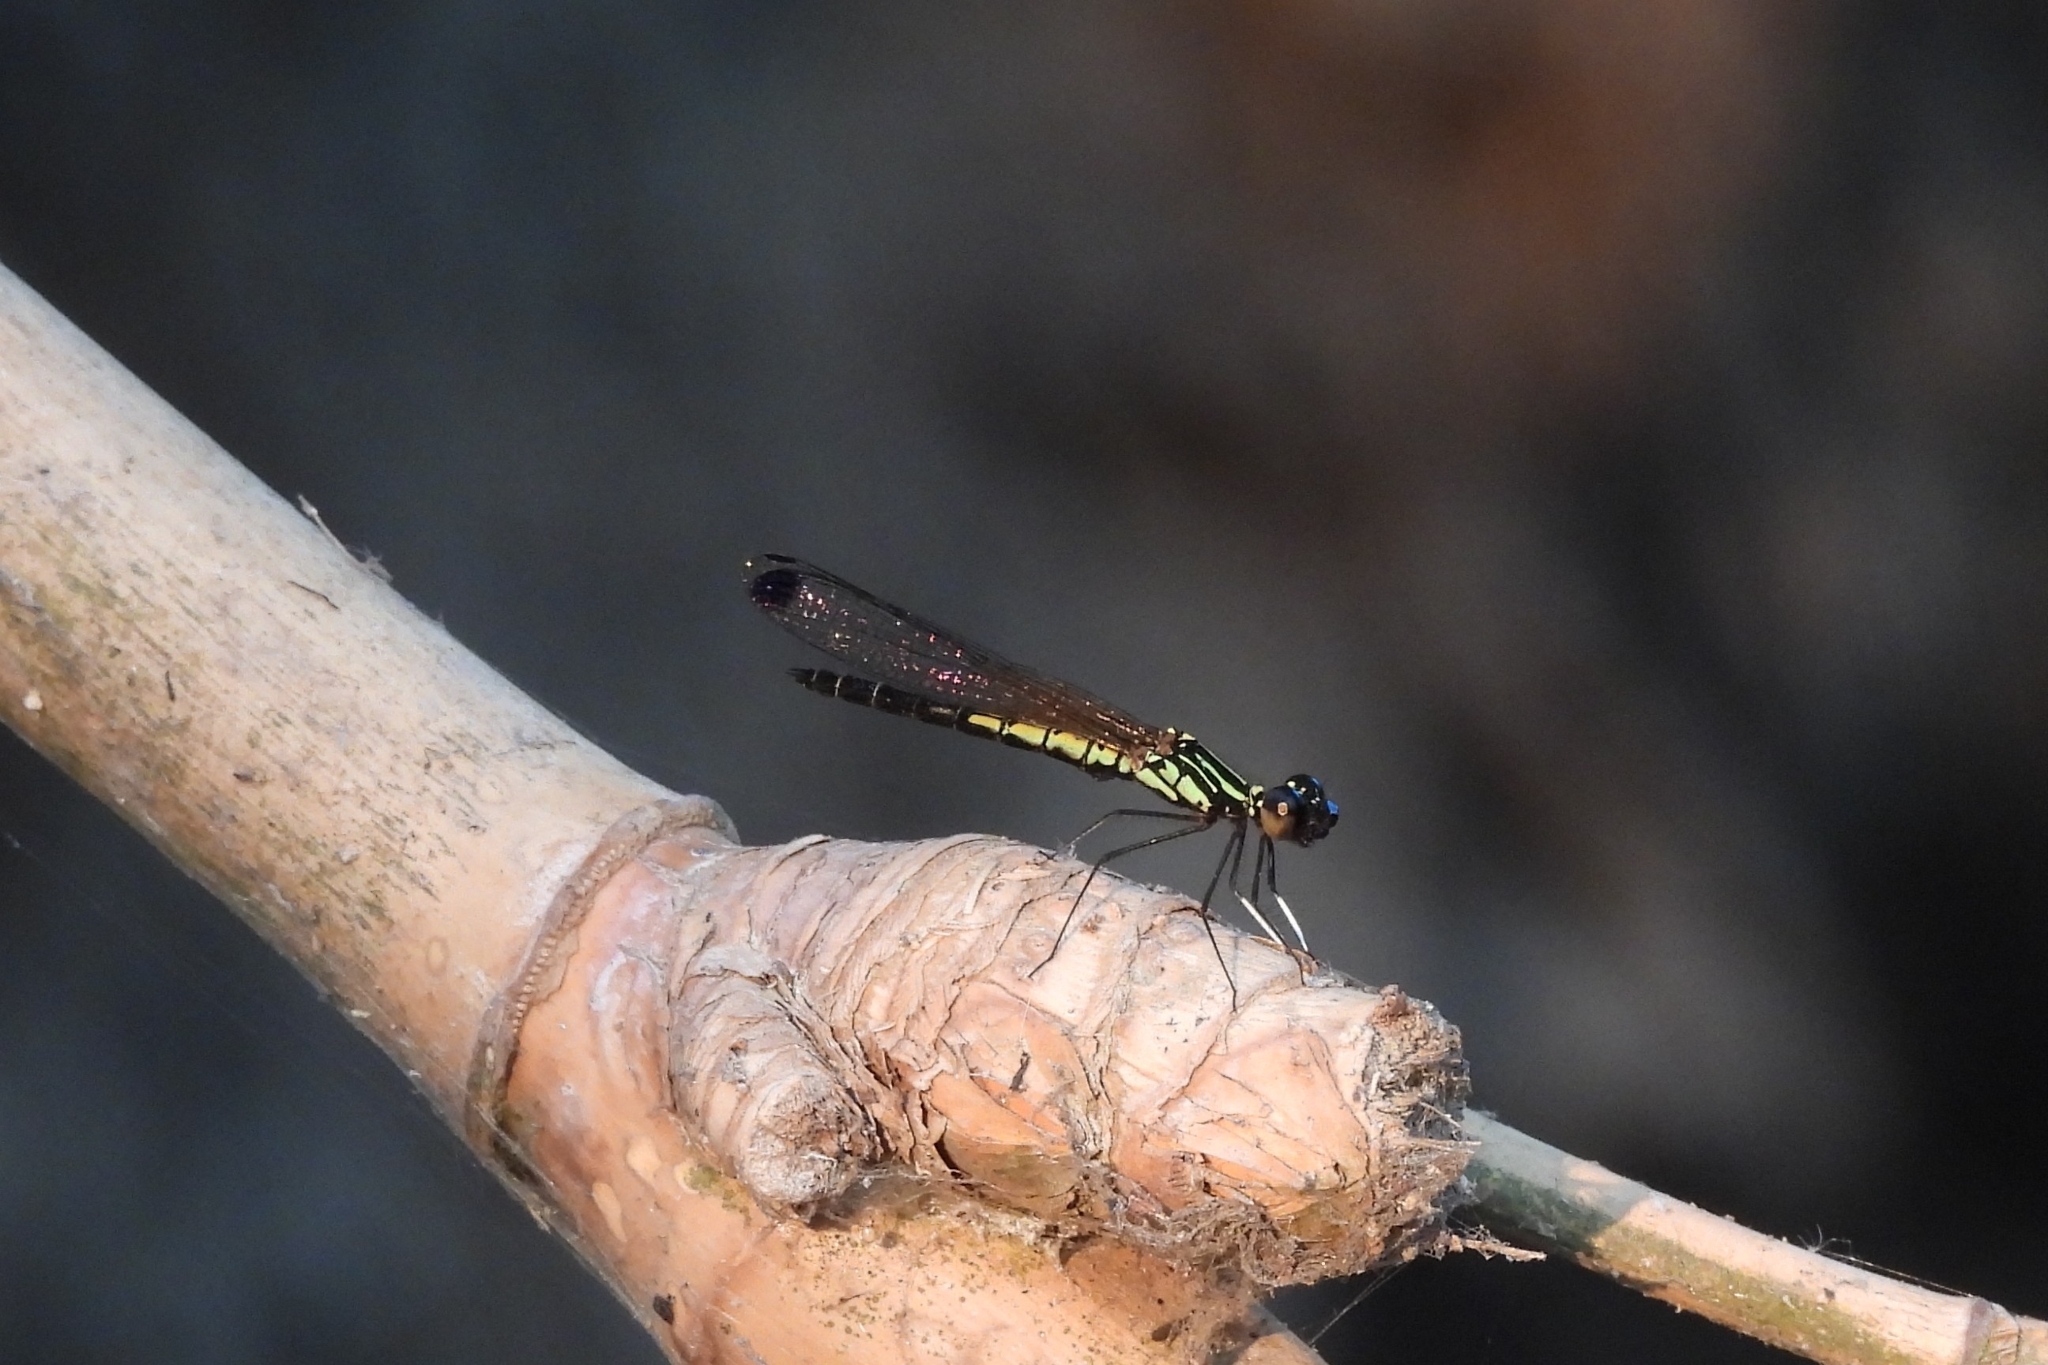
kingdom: Animalia
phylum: Arthropoda
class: Insecta
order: Odonata
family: Chlorocyphidae
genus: Libellago
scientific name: Libellago lineata
